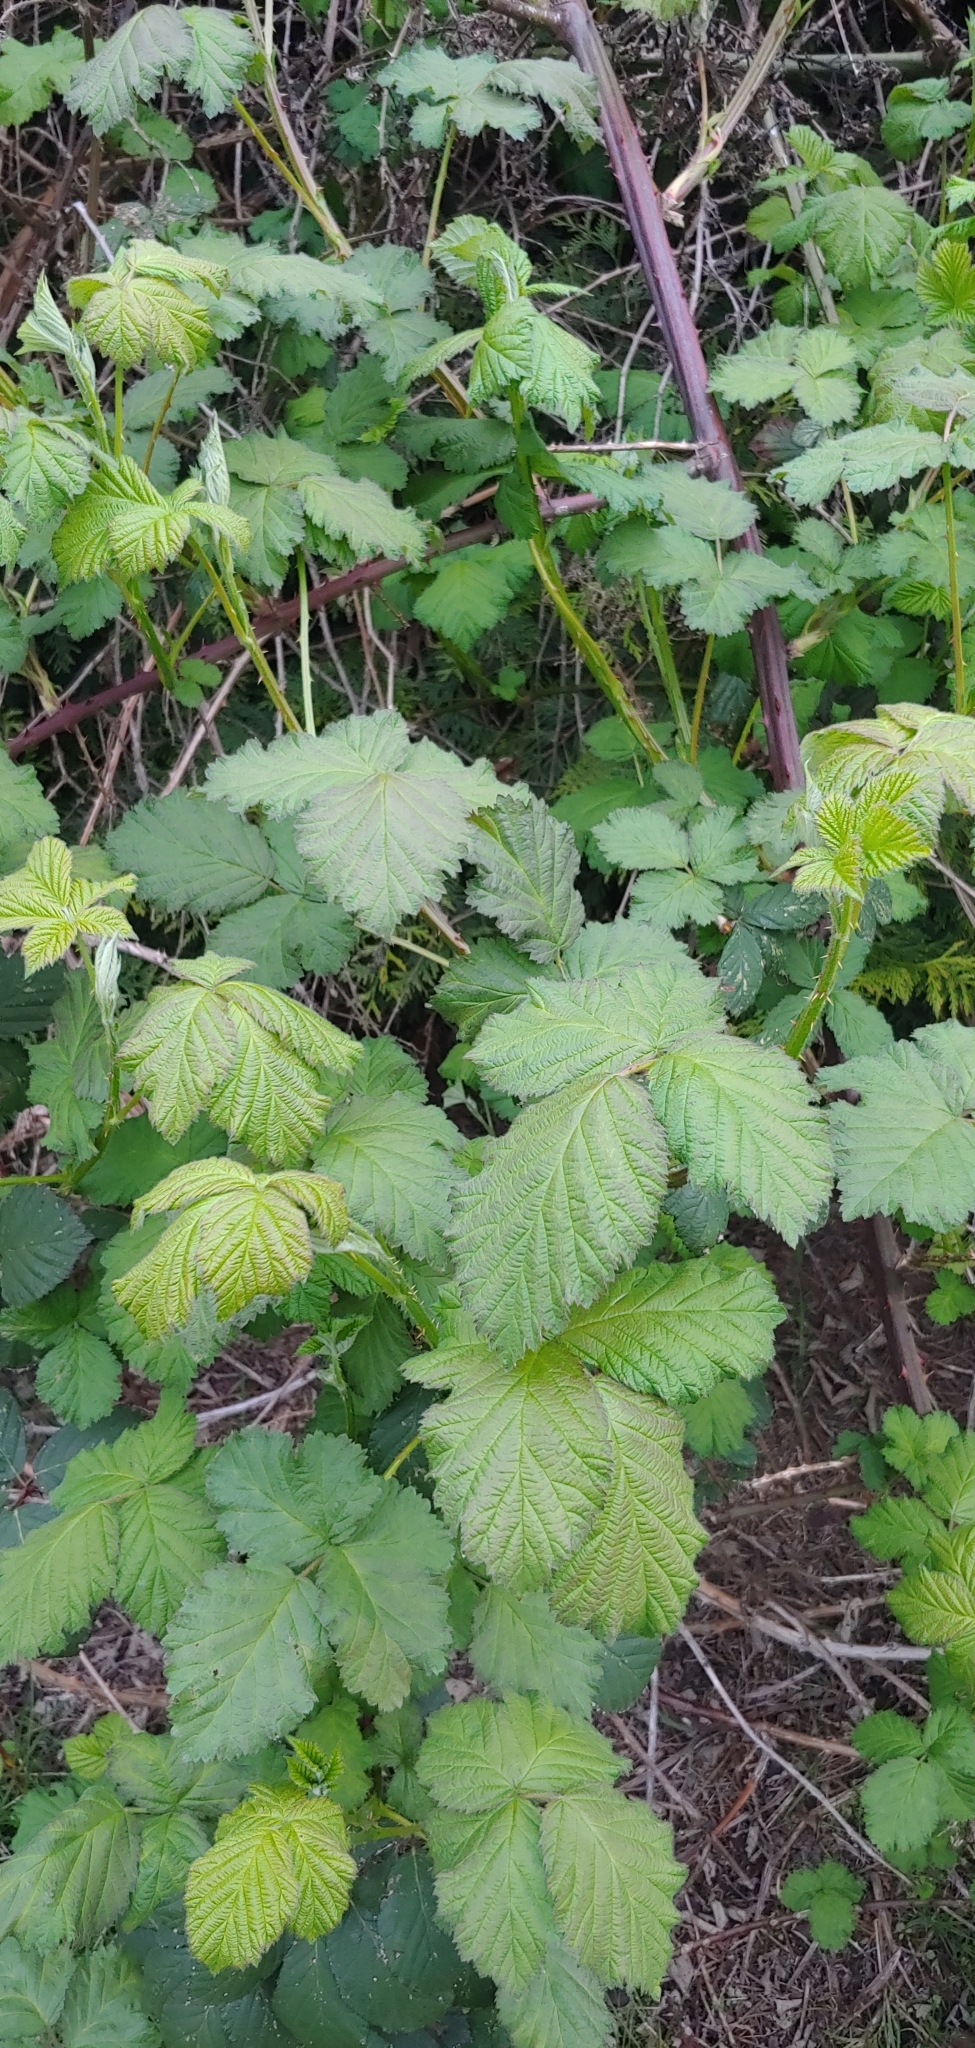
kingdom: Plantae
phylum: Tracheophyta
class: Magnoliopsida
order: Rosales
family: Rosaceae
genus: Rubus
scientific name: Rubus armeniacus
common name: Himalayan blackberry
